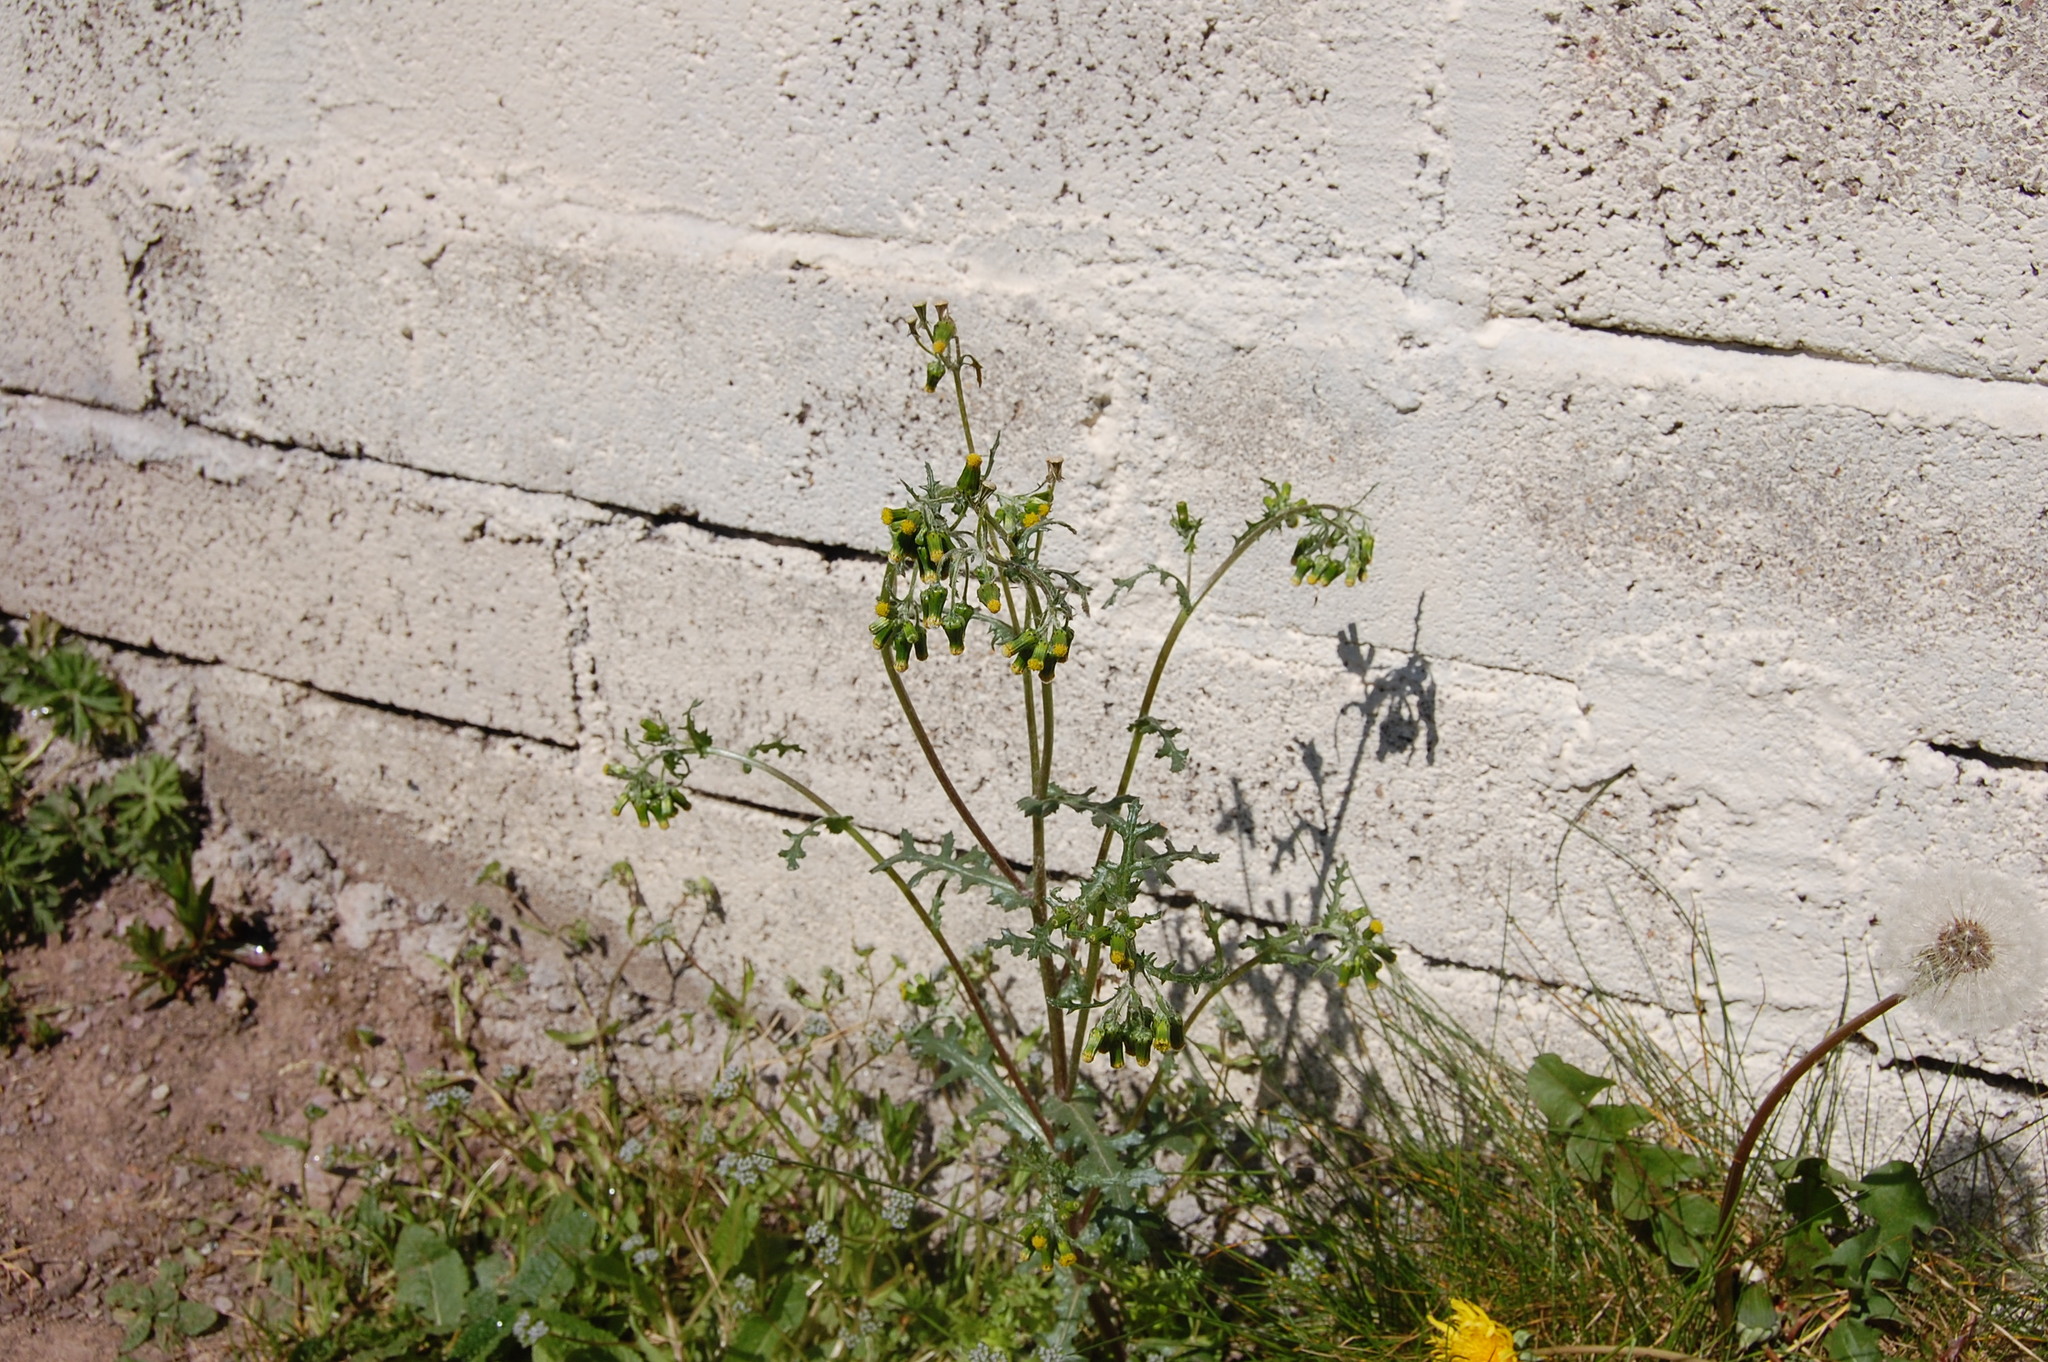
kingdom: Plantae
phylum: Tracheophyta
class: Magnoliopsida
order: Asterales
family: Asteraceae
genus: Senecio
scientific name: Senecio vulgaris
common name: Old-man-in-the-spring
